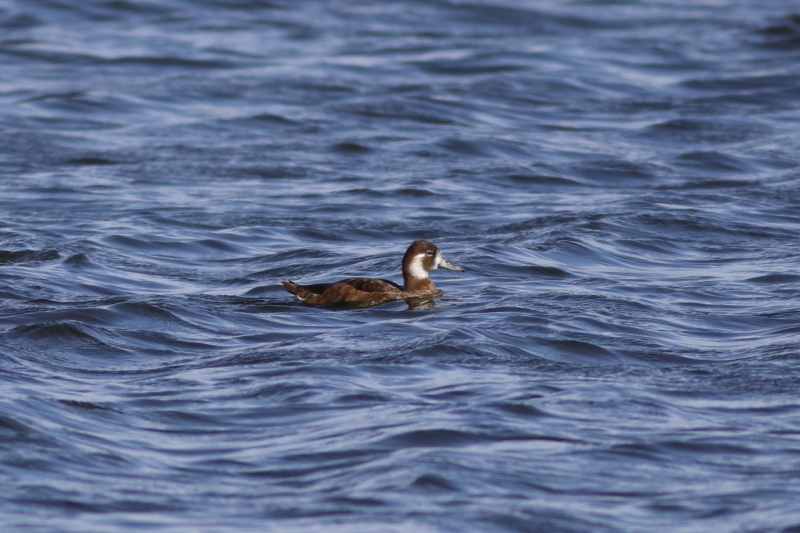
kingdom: Animalia
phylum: Chordata
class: Aves
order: Anseriformes
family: Anatidae
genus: Netta
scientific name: Netta erythrophthalma
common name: Southern pochard
